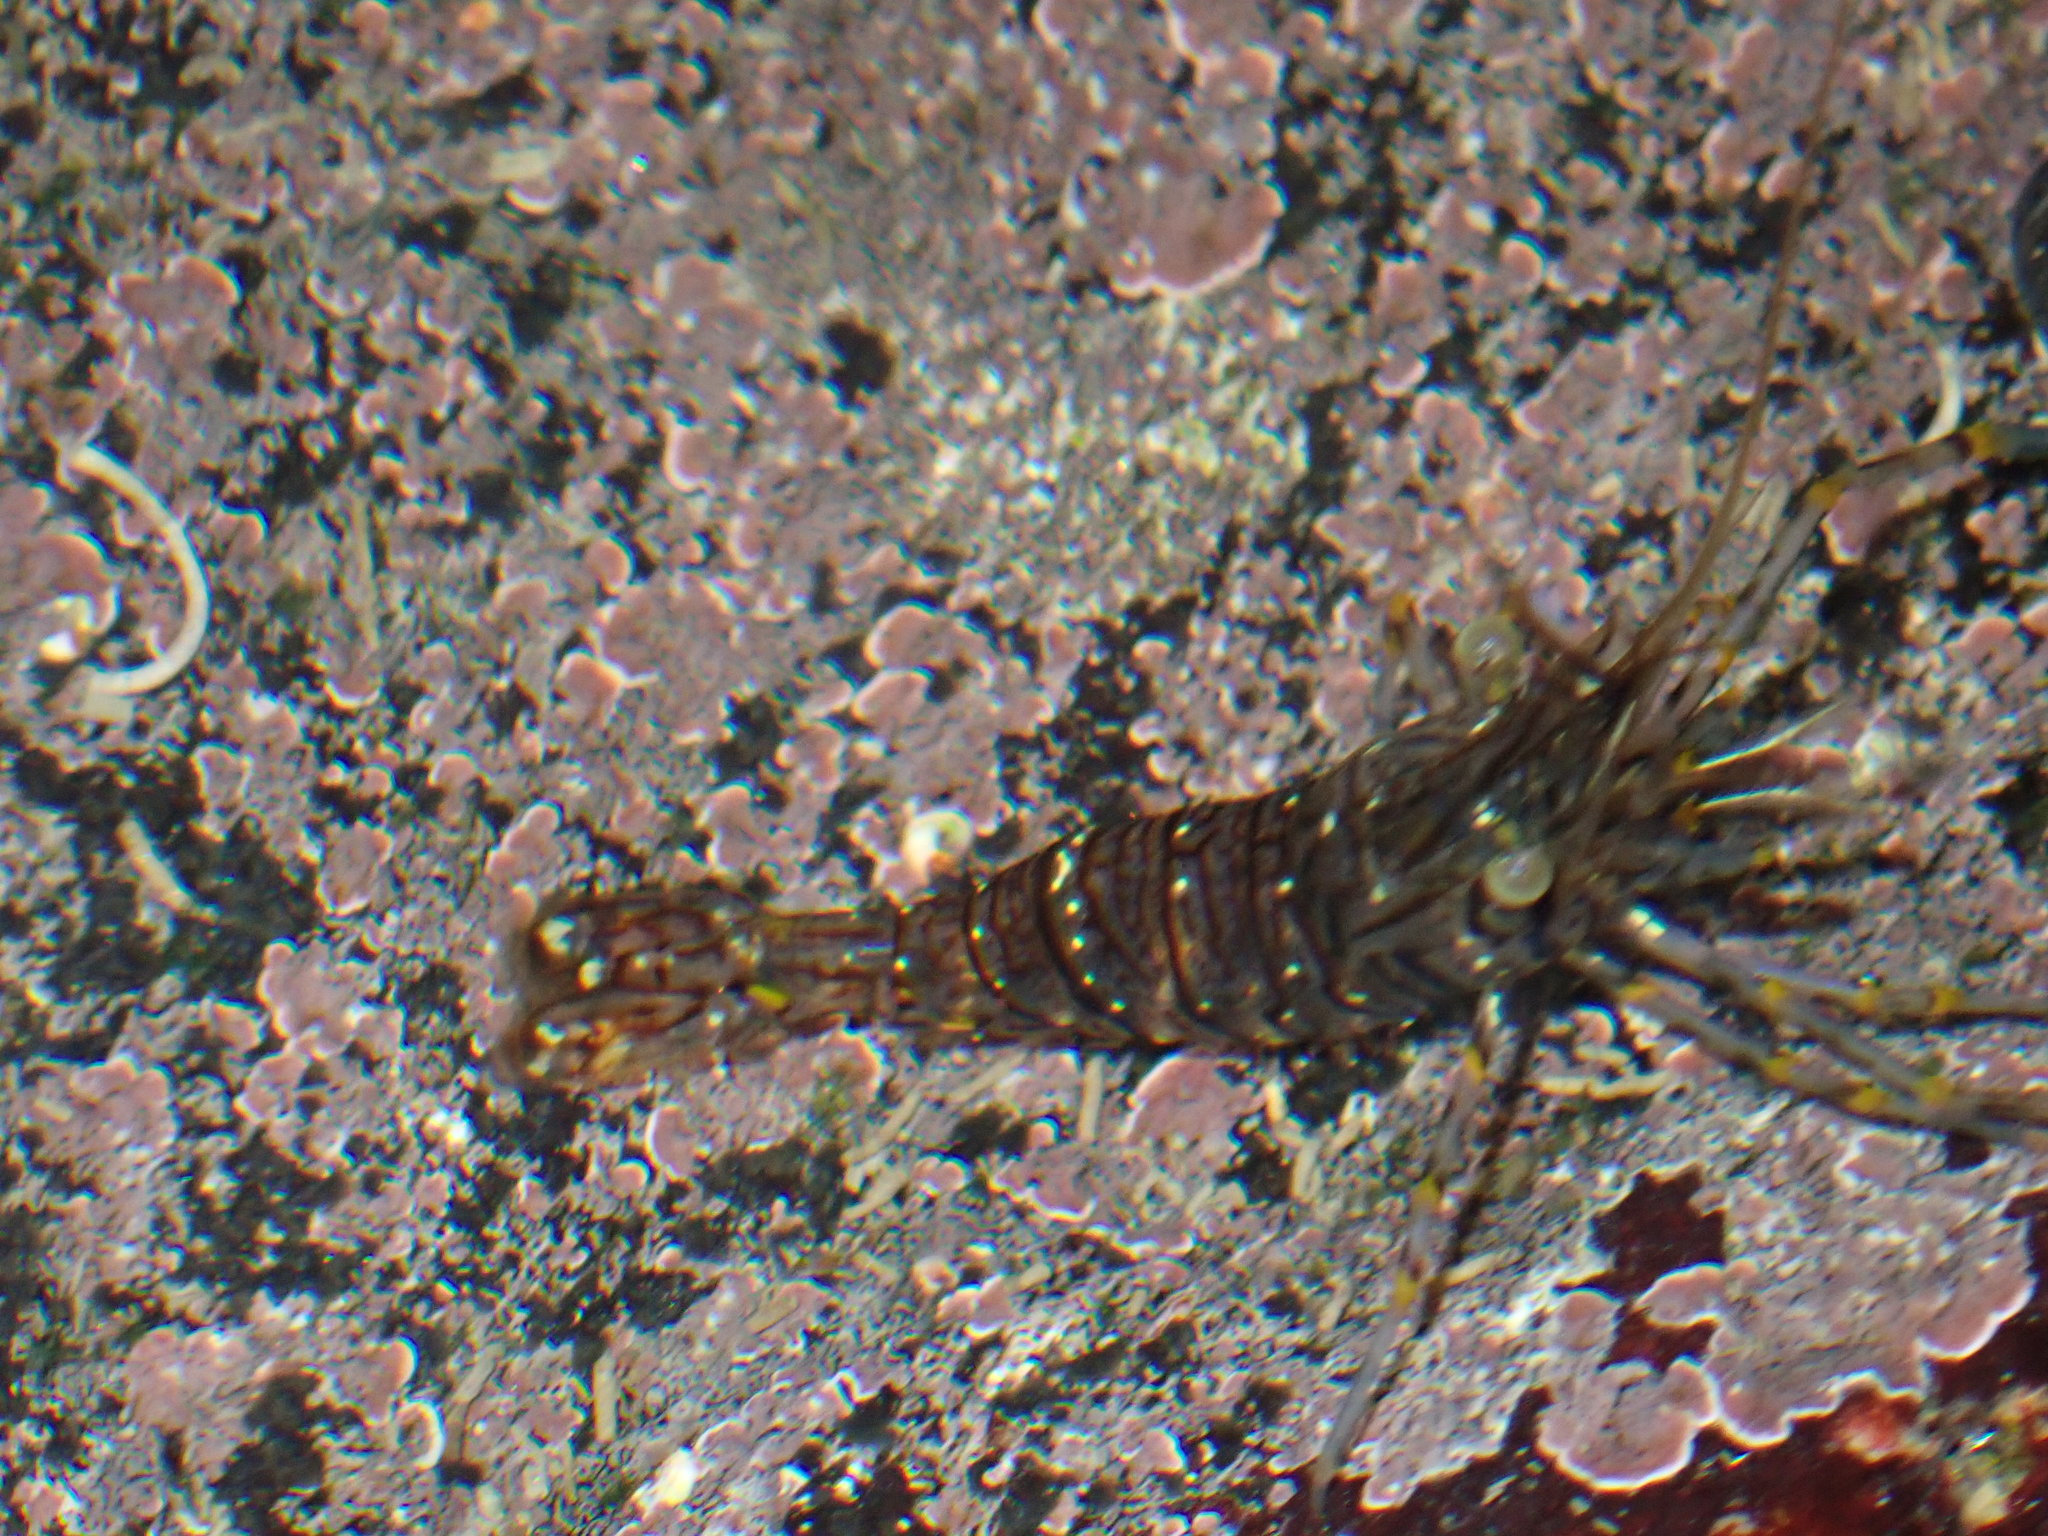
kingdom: Animalia
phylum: Arthropoda
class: Malacostraca
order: Decapoda
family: Palaemonidae
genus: Palaemon
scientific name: Palaemon elegans
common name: Grass prawm
